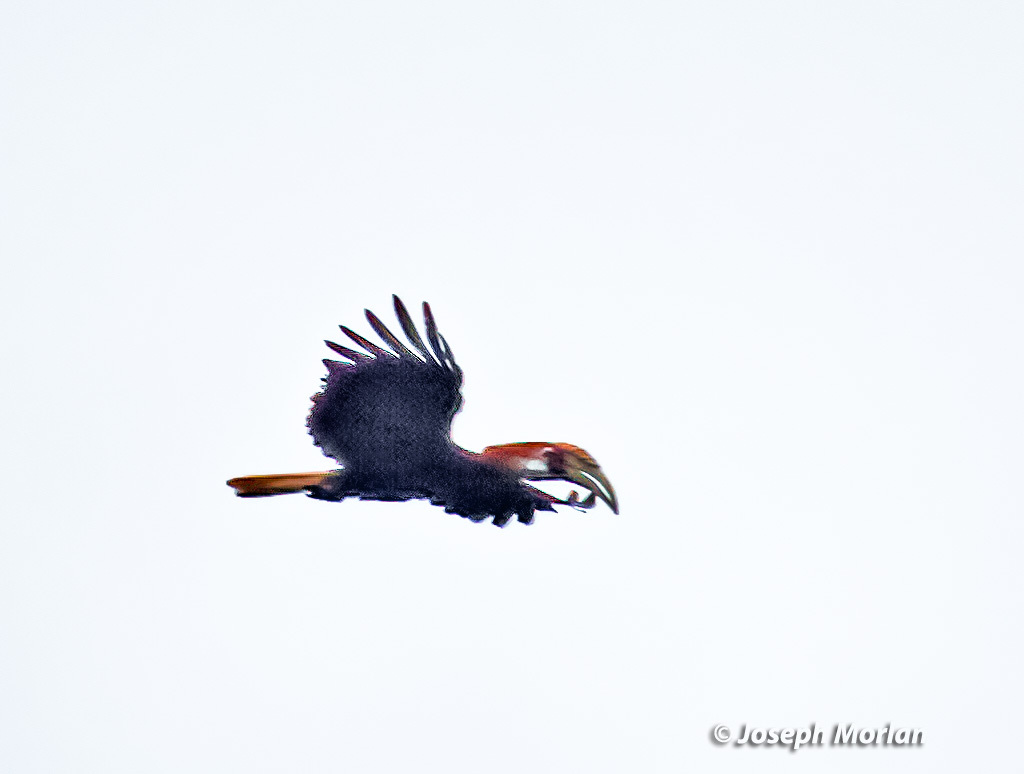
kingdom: Animalia
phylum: Chordata
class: Aves
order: Bucerotiformes
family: Bucerotidae
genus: Rhyticeros
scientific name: Rhyticeros plicatus
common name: Blyth's hornbill
